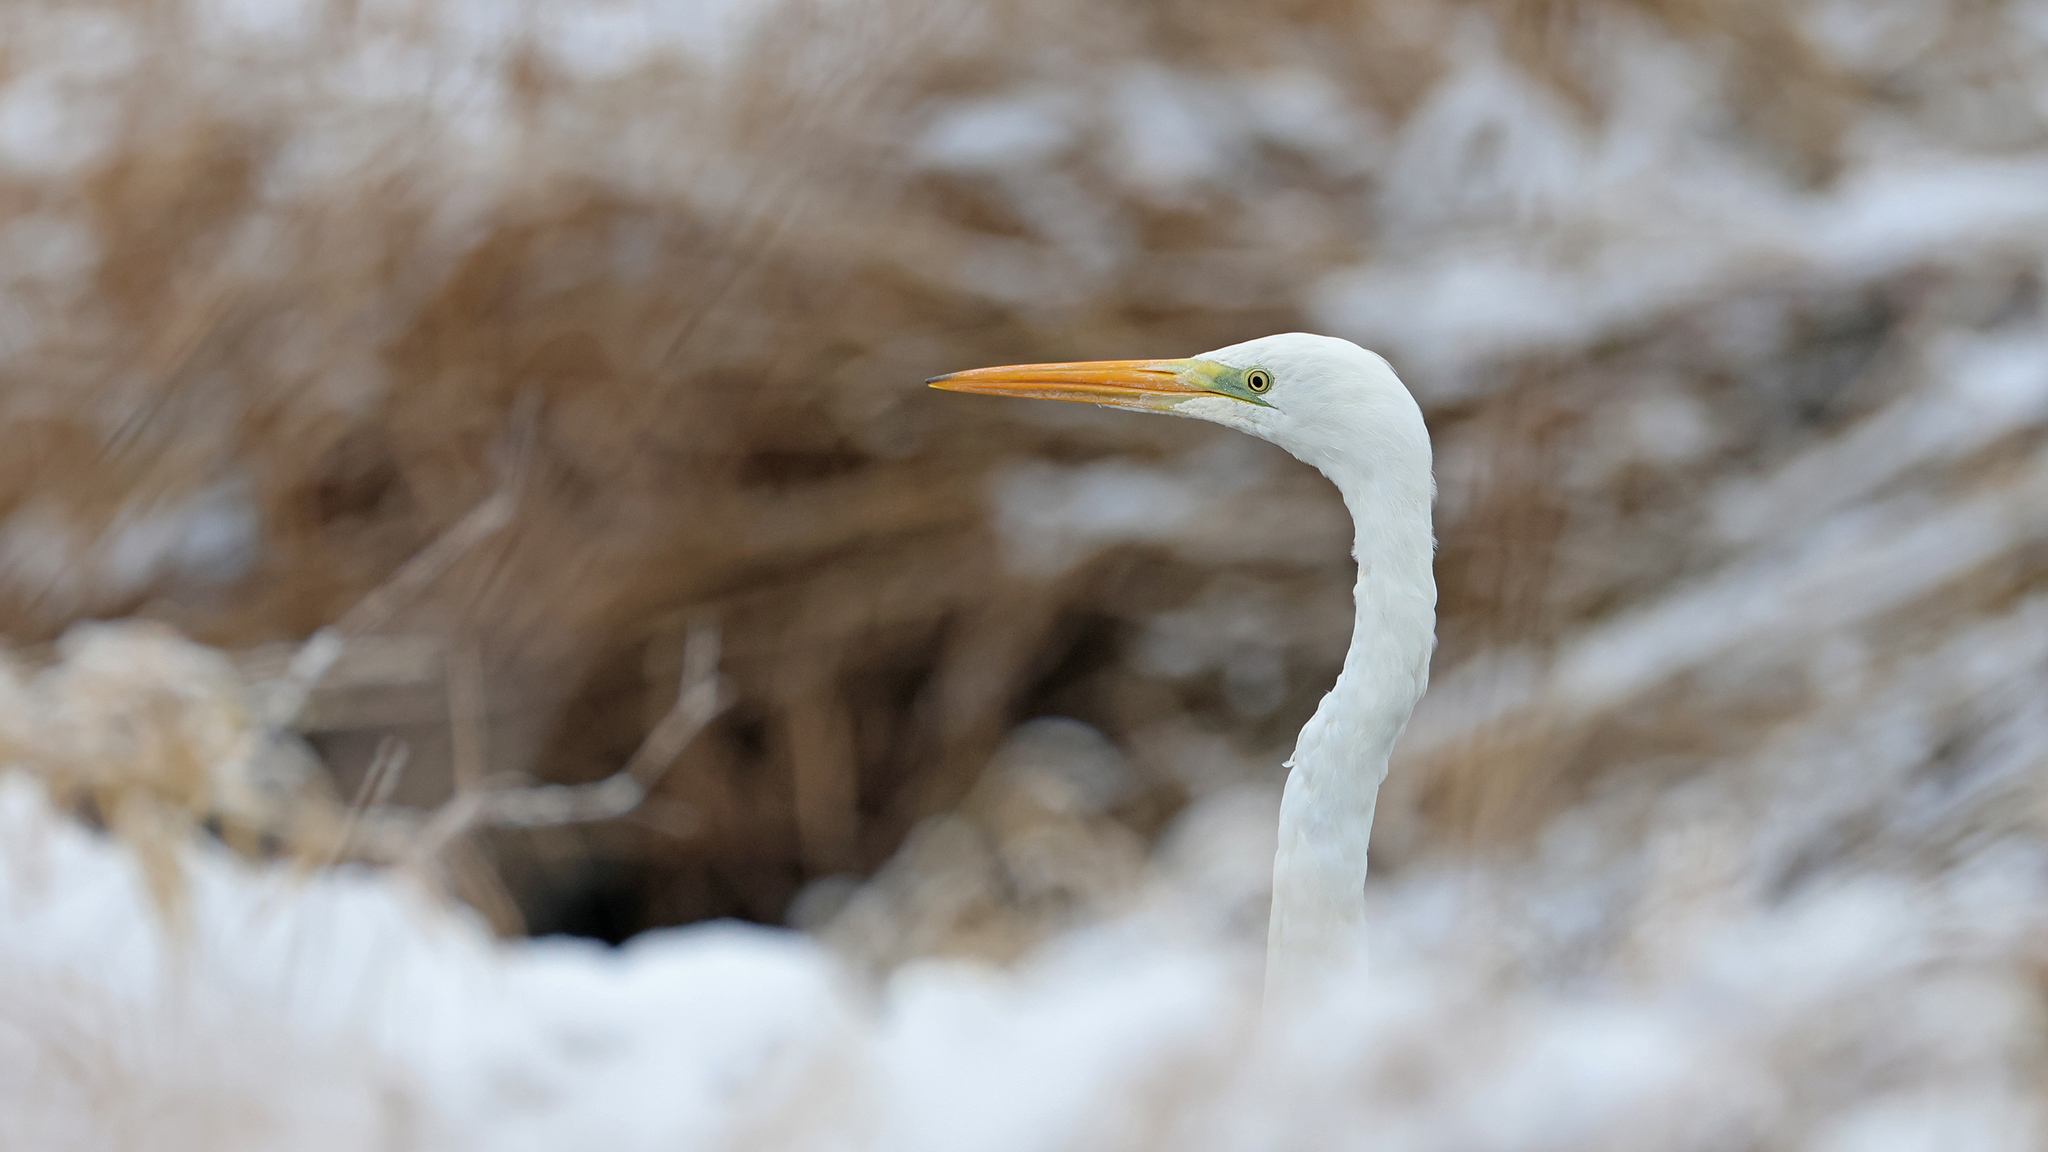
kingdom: Animalia
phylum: Chordata
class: Aves
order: Pelecaniformes
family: Ardeidae
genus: Ardea
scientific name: Ardea alba
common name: Great egret
